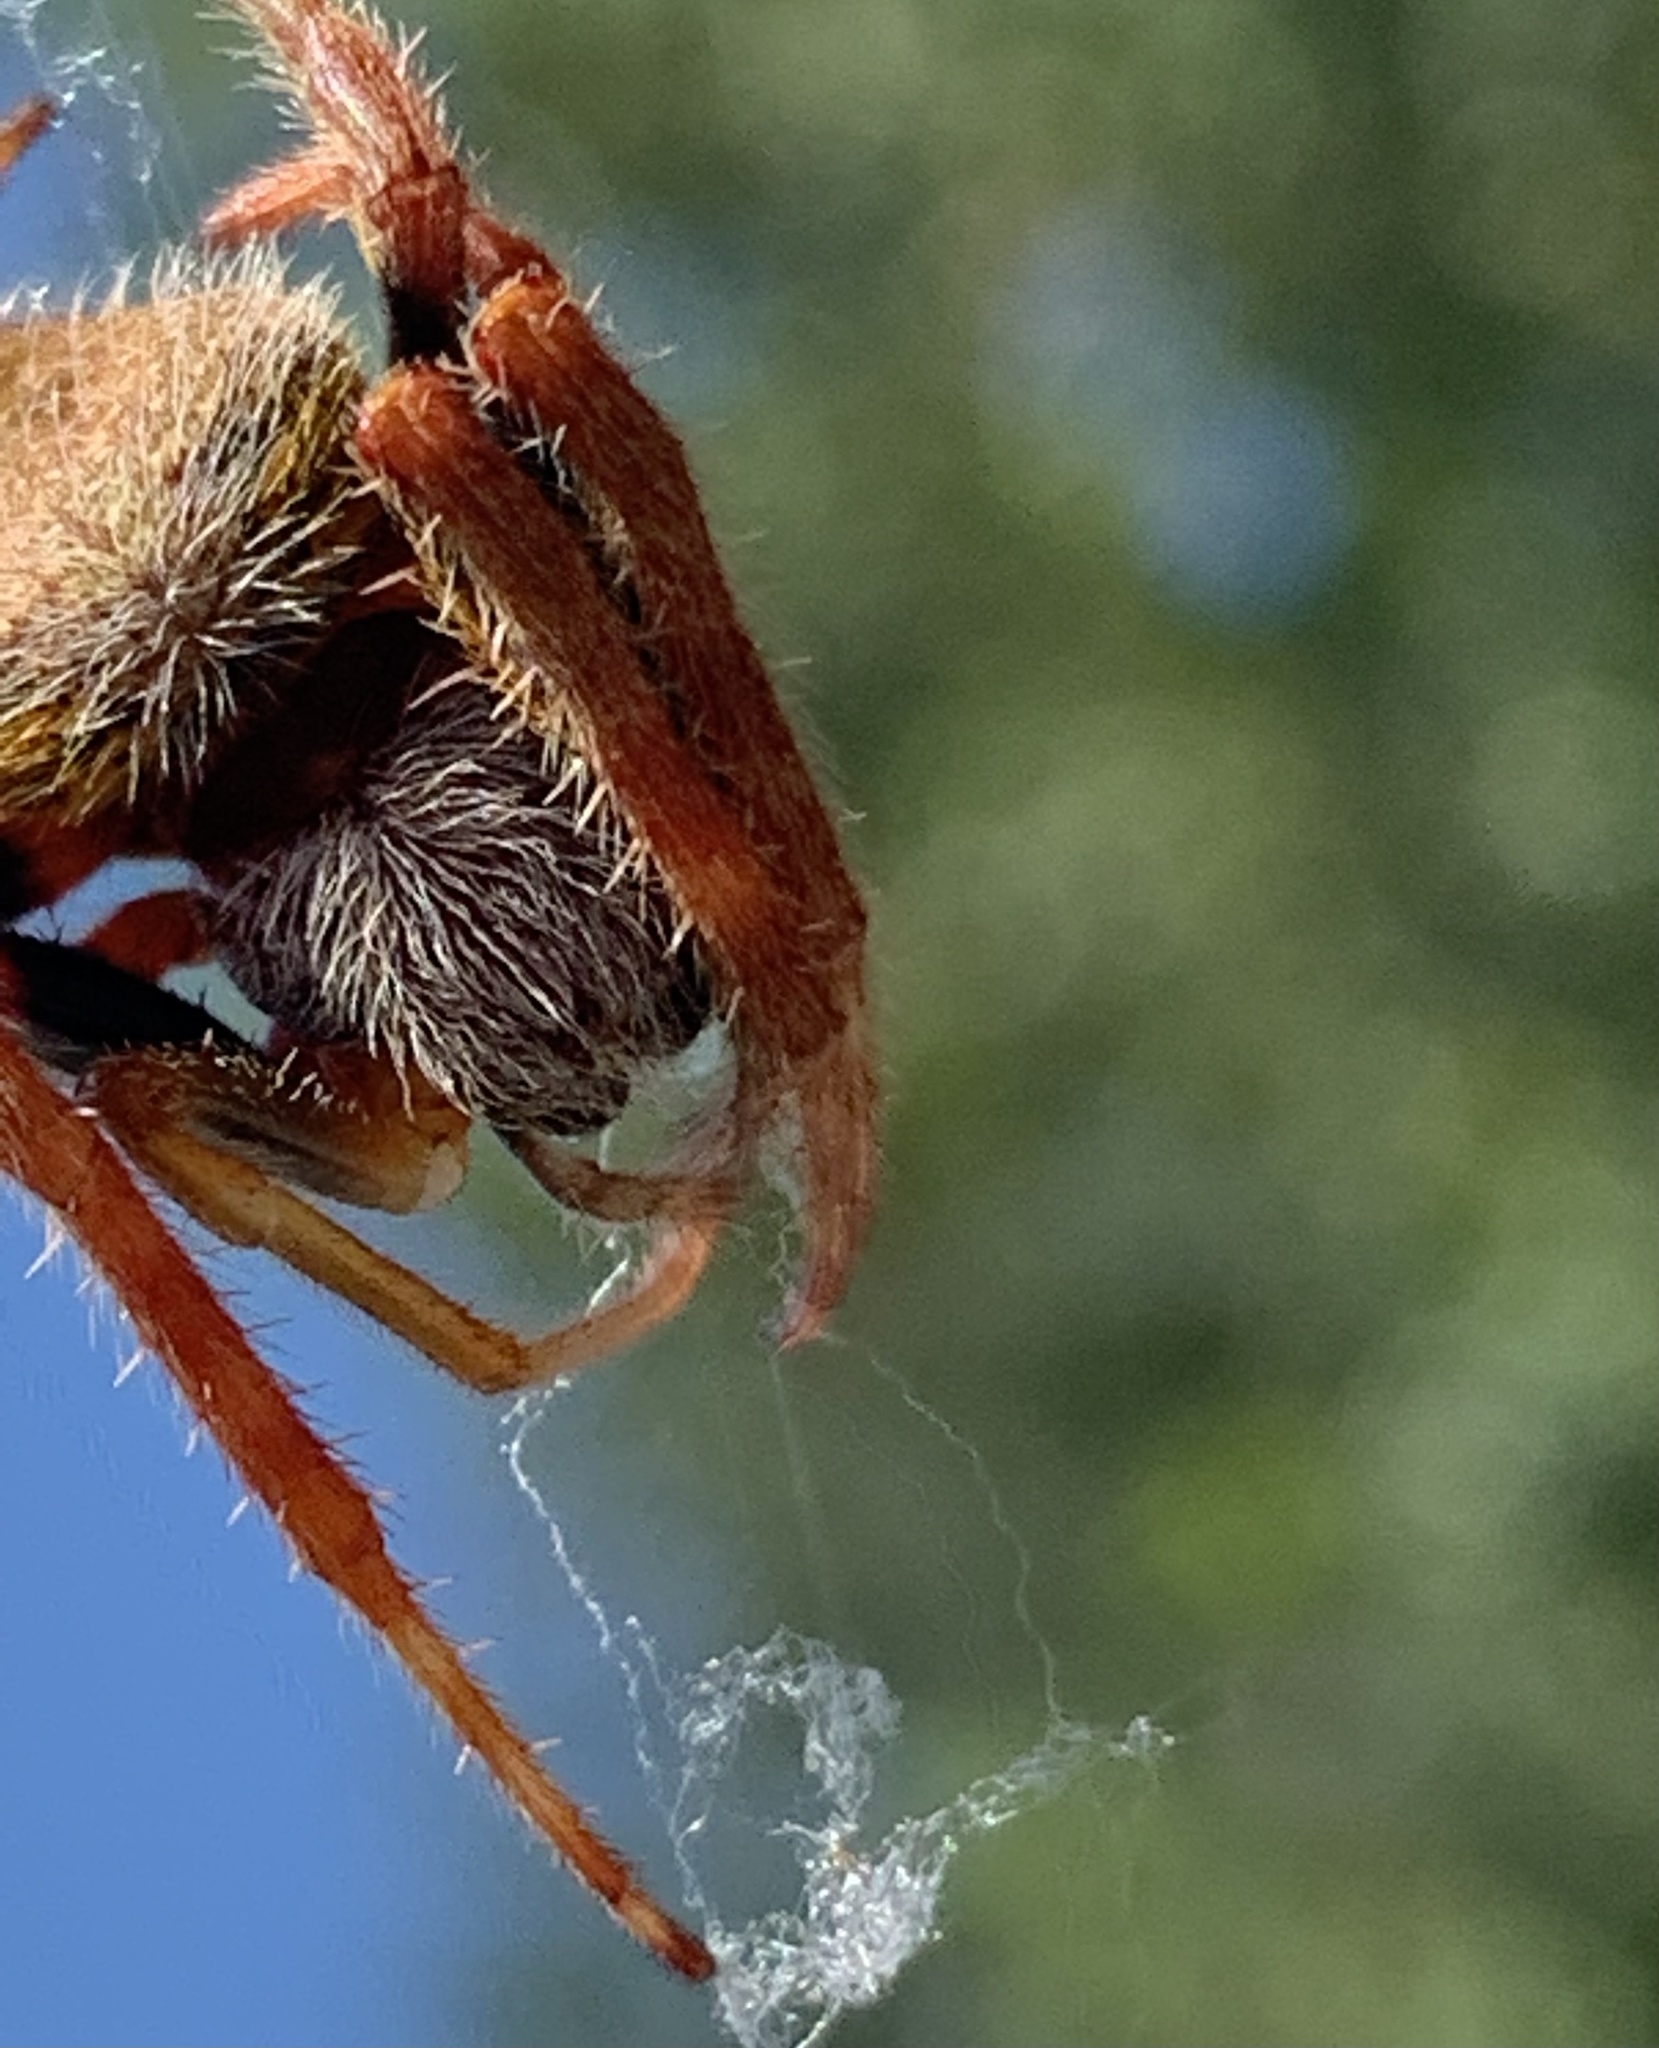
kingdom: Animalia
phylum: Arthropoda
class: Arachnida
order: Araneae
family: Araneidae
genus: Eriophora
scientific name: Eriophora ravilla
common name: Orb weavers
